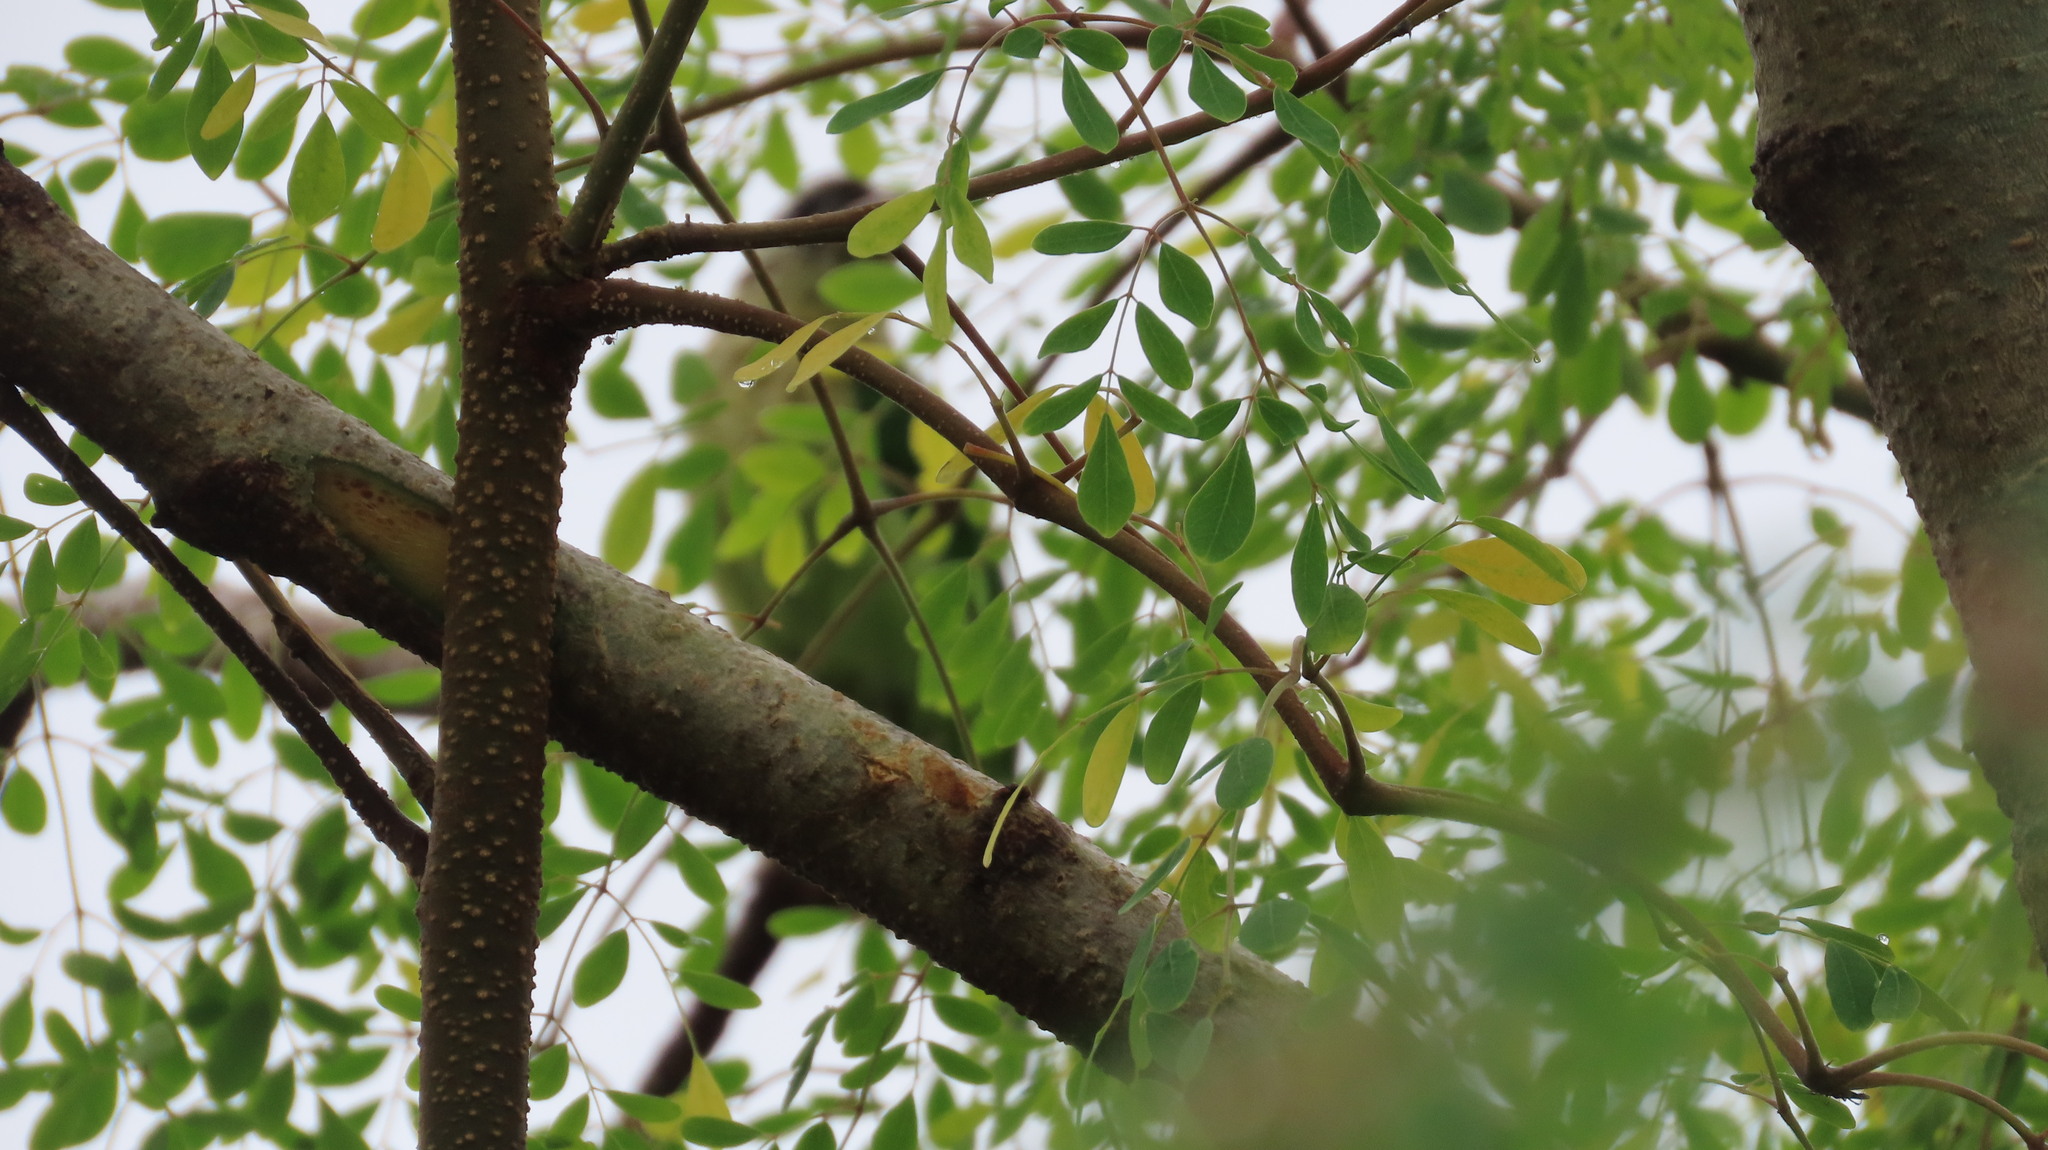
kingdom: Animalia
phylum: Chordata
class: Aves
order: Piciformes
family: Megalaimidae
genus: Psilopogon
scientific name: Psilopogon viridis
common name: White-cheeked barbet
